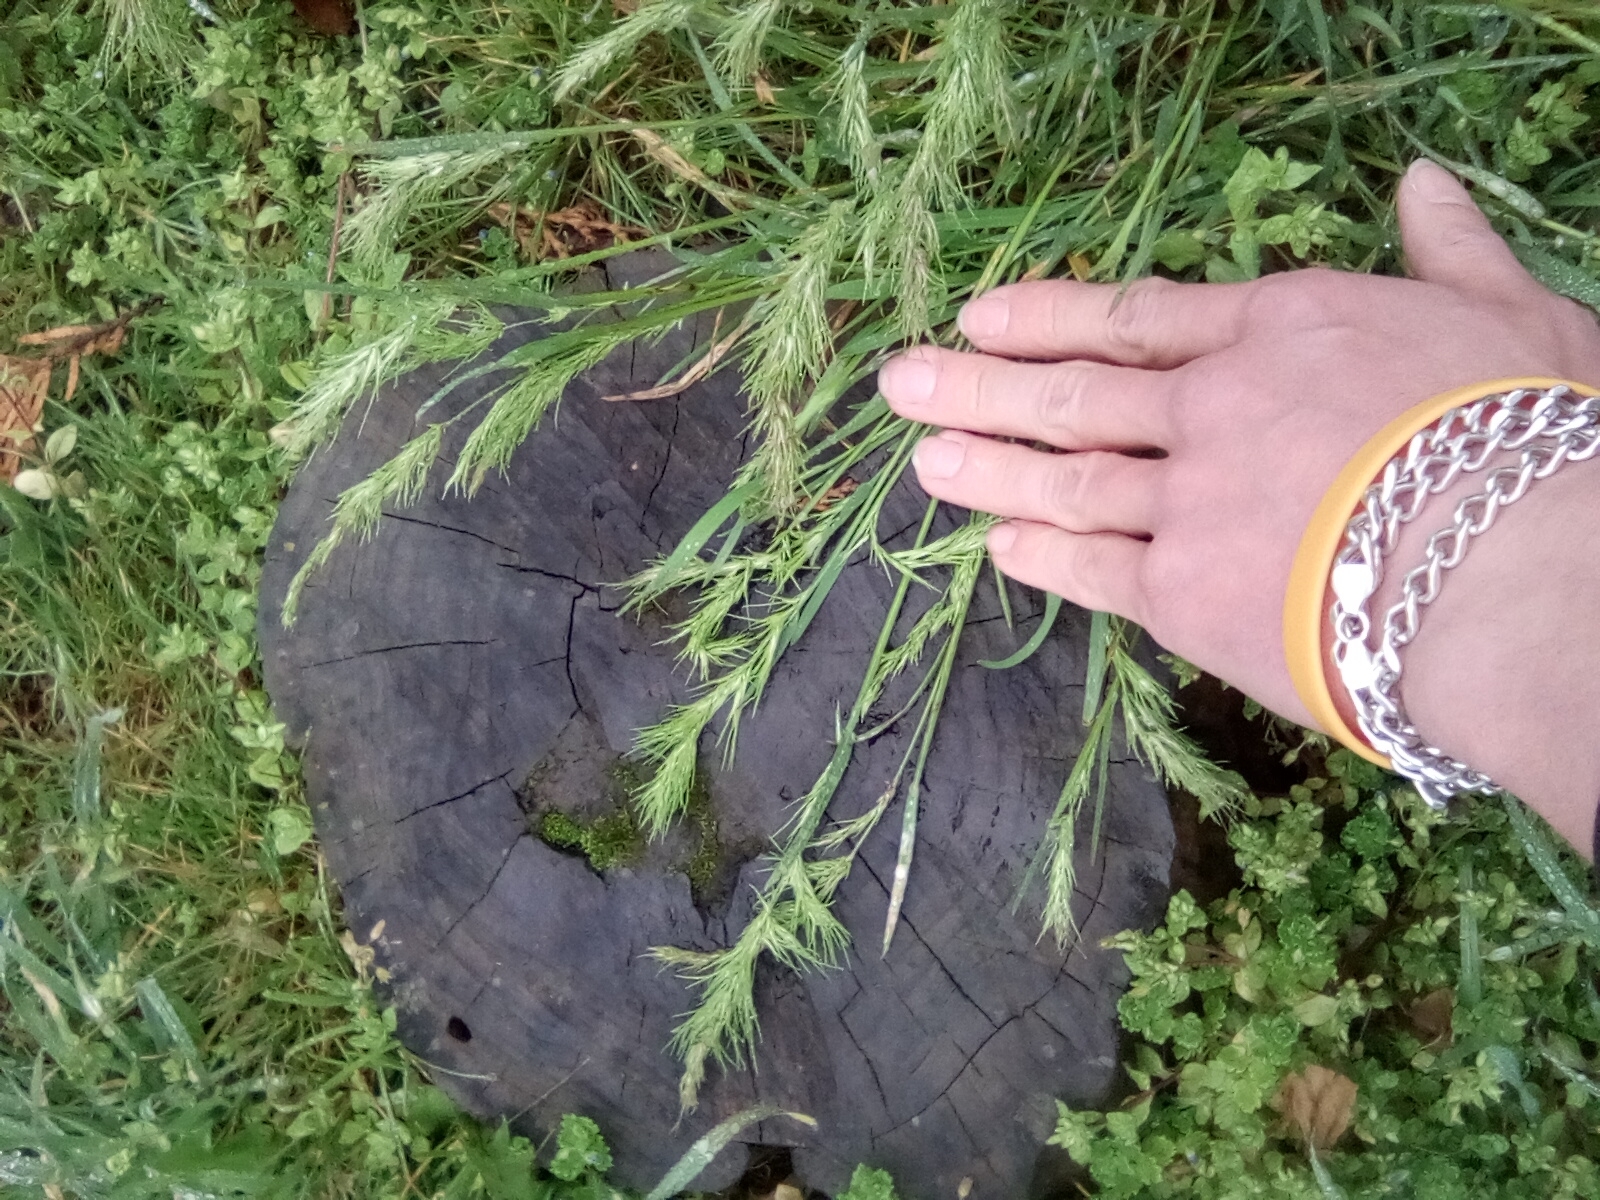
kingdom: Plantae
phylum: Tracheophyta
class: Liliopsida
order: Poales
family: Poaceae
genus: Poa
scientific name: Poa bulbosa
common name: Bulbous bluegrass
